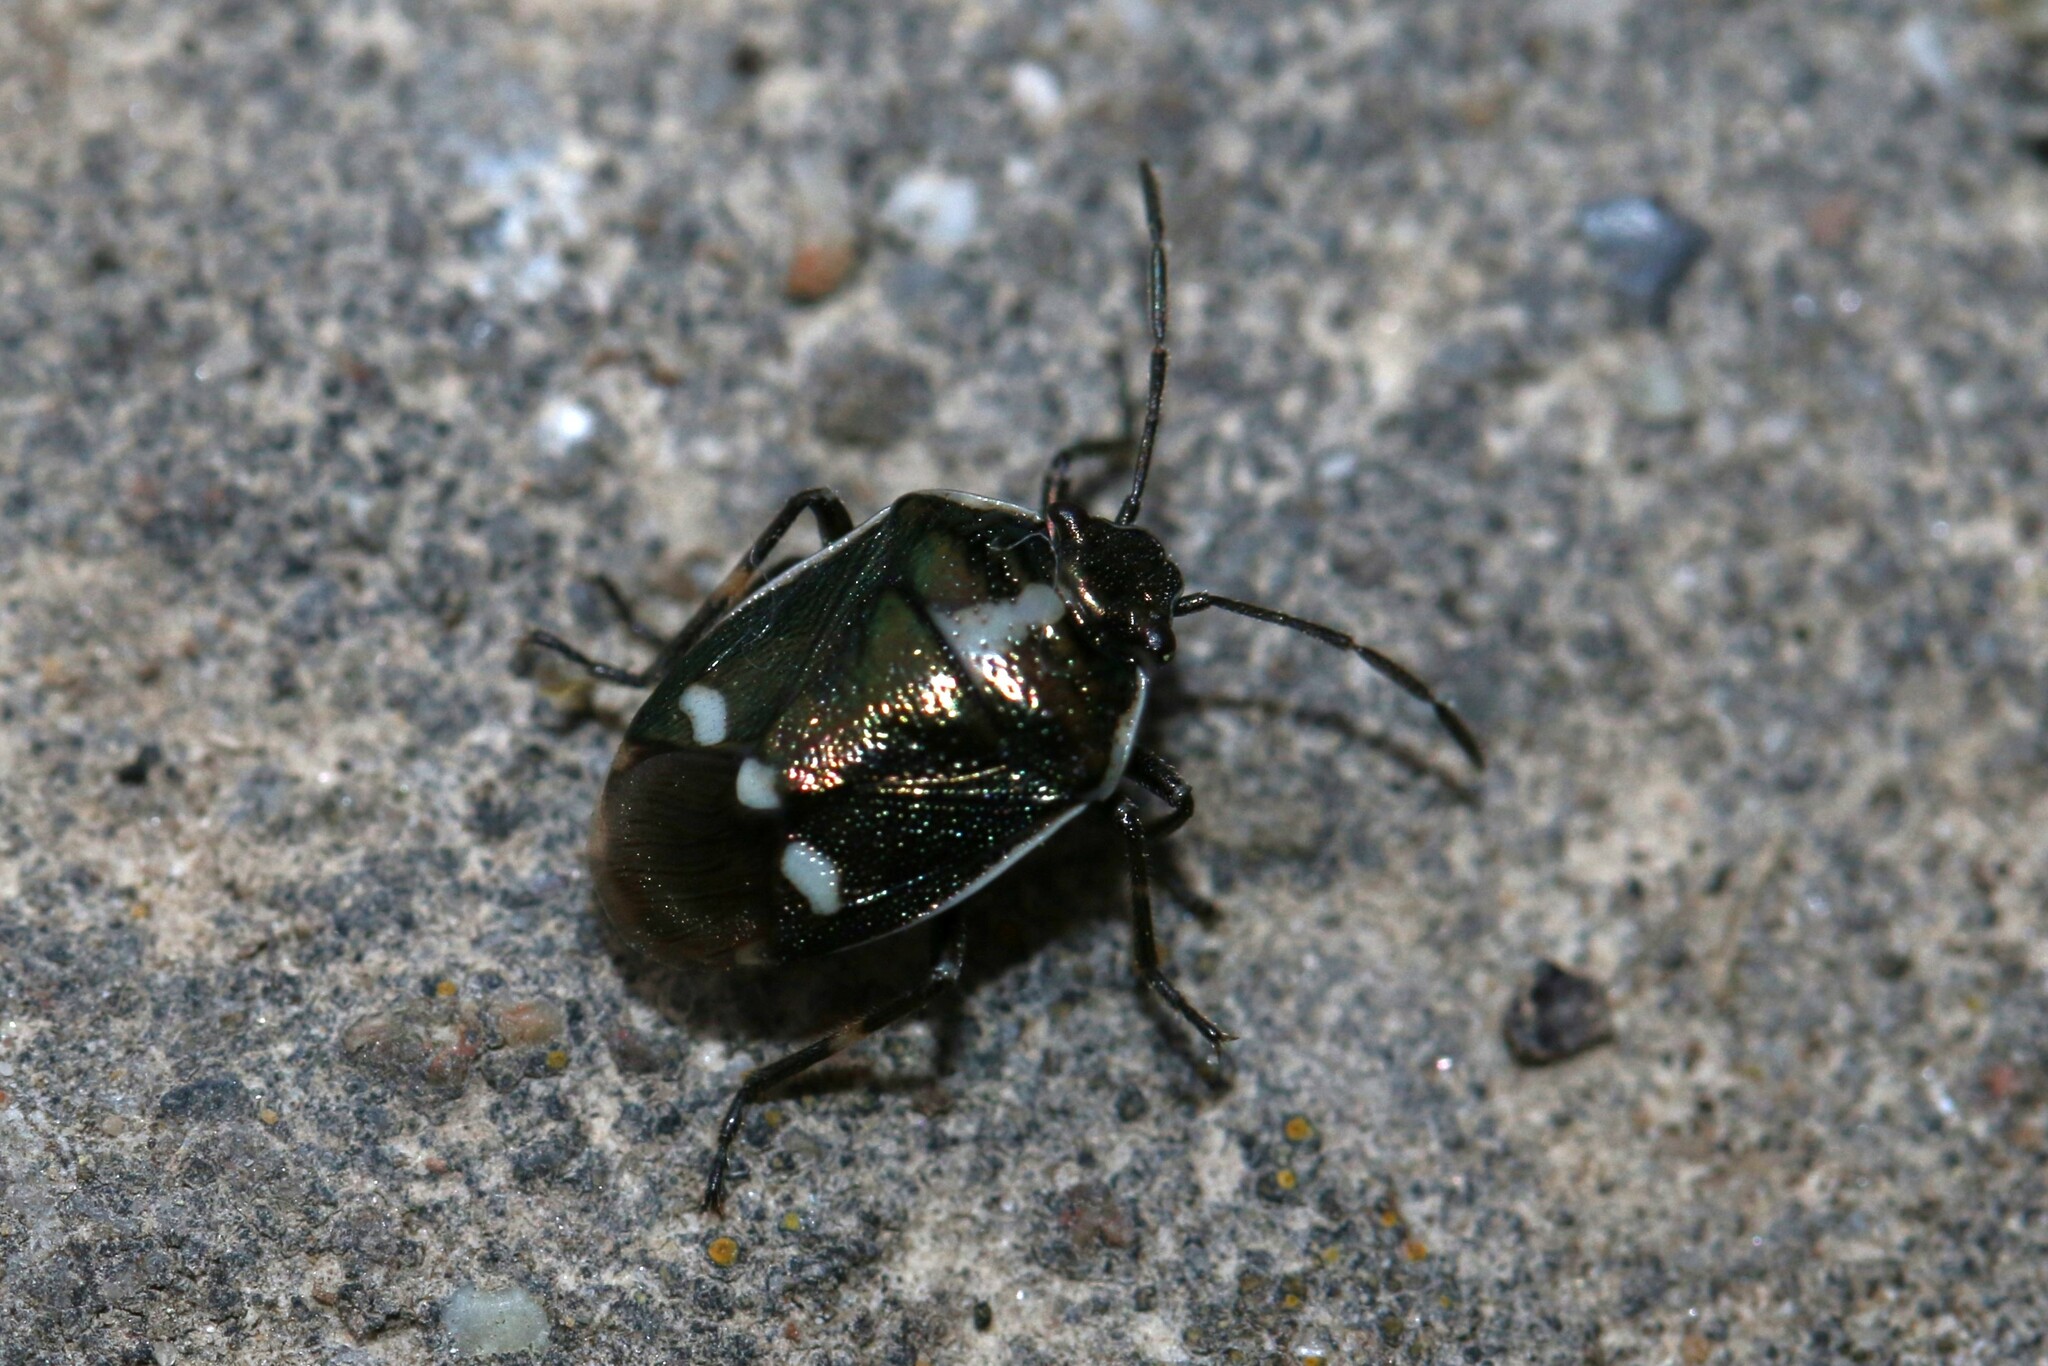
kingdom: Animalia
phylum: Arthropoda
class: Insecta
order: Hemiptera
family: Pentatomidae
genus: Eurydema
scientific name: Eurydema oleracea
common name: Cabbage bug
